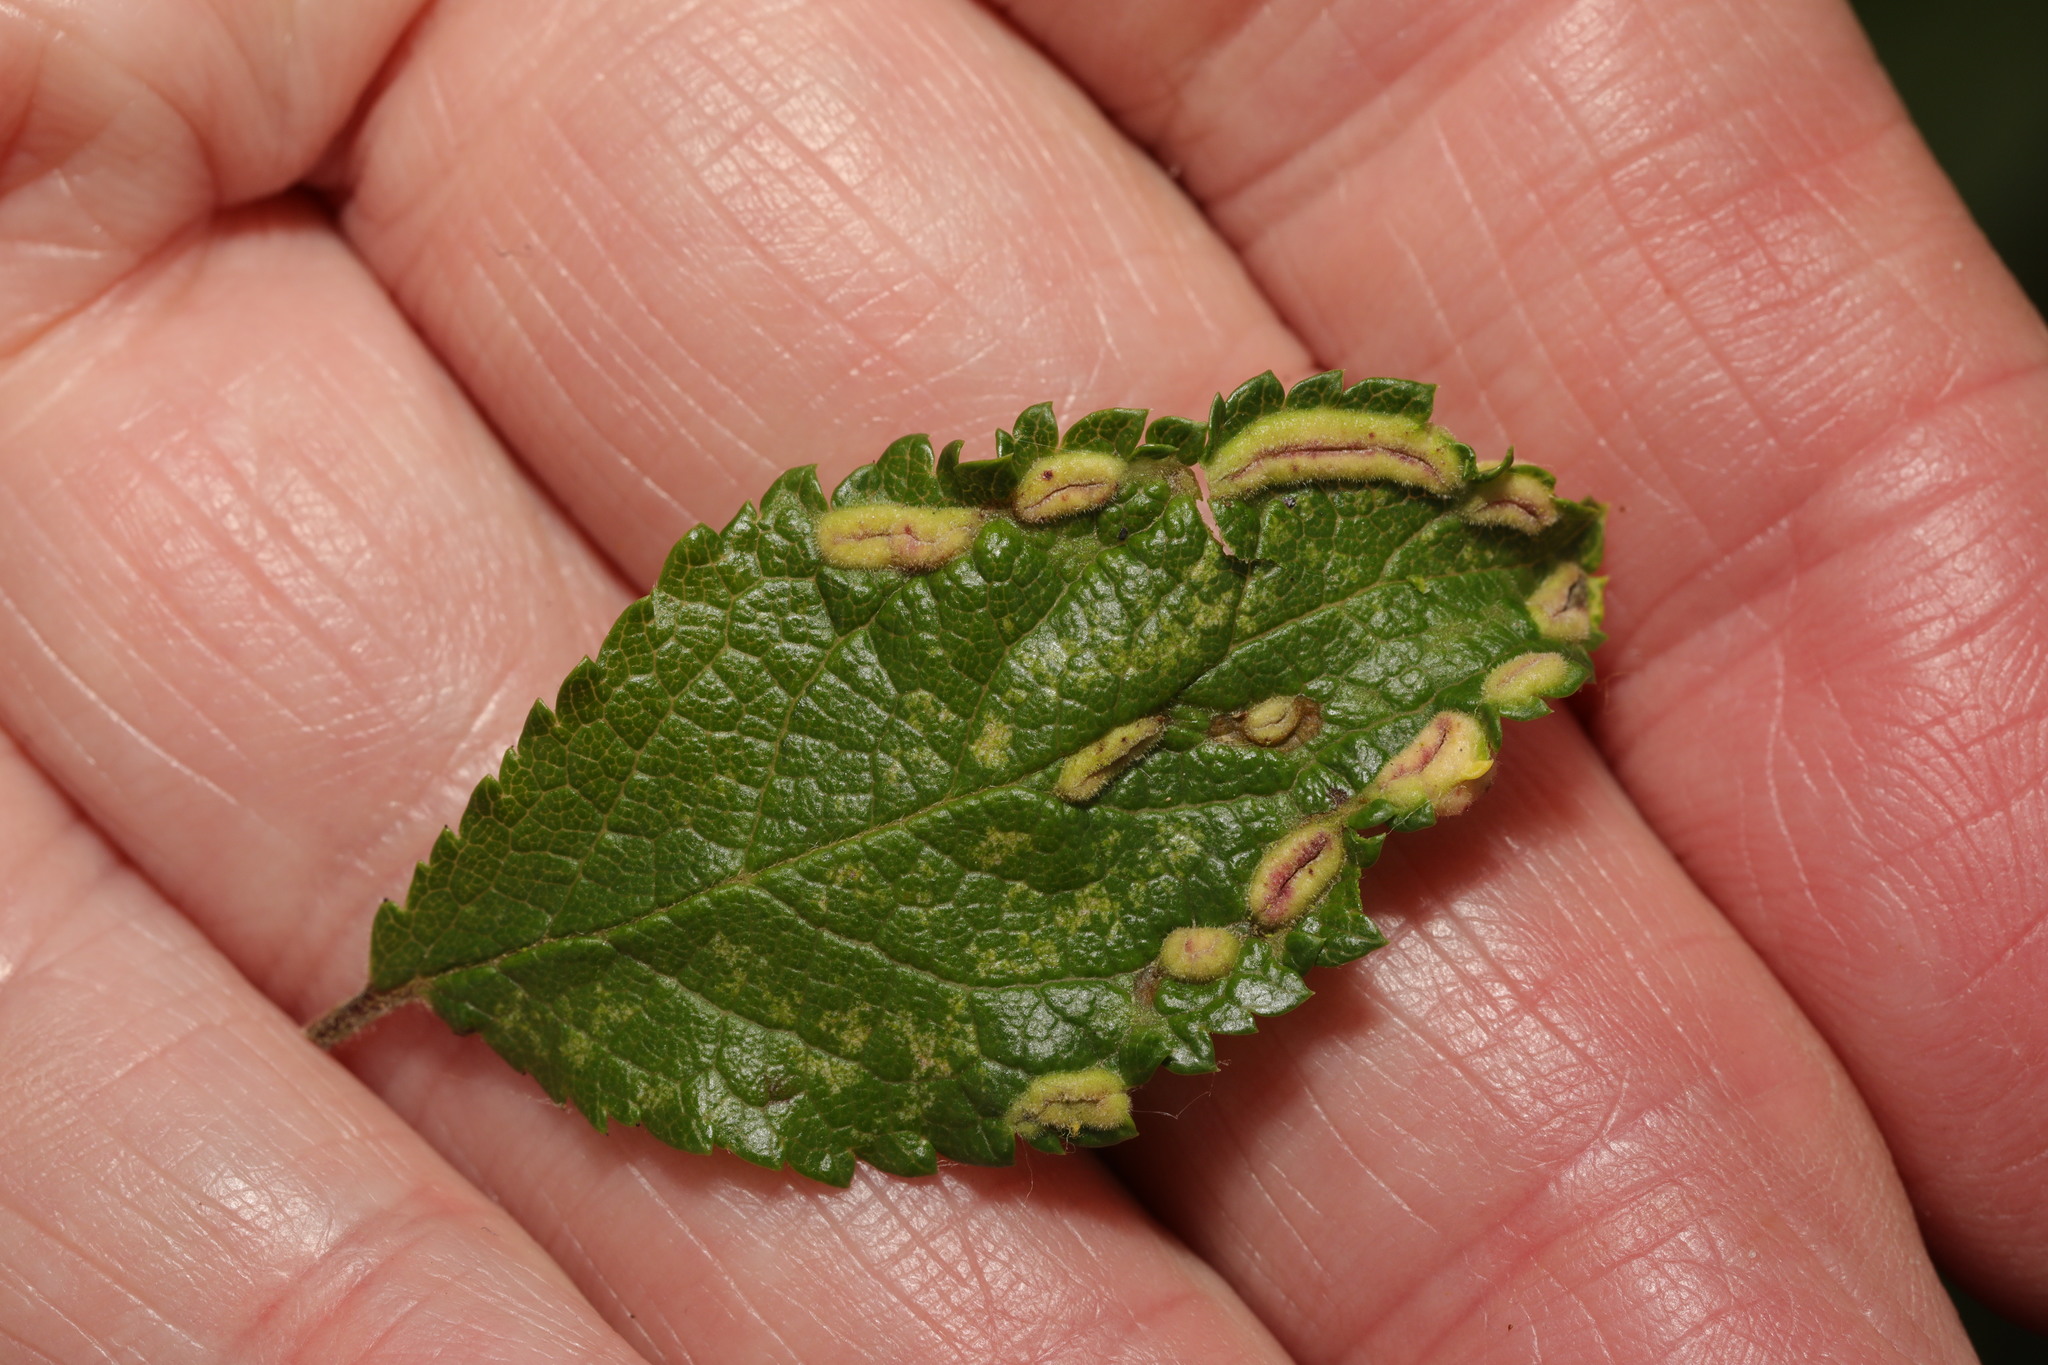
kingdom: Animalia
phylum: Arthropoda
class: Arachnida
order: Trombidiformes
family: Eriophyidae
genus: Eriophyes
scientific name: Eriophyes similis
